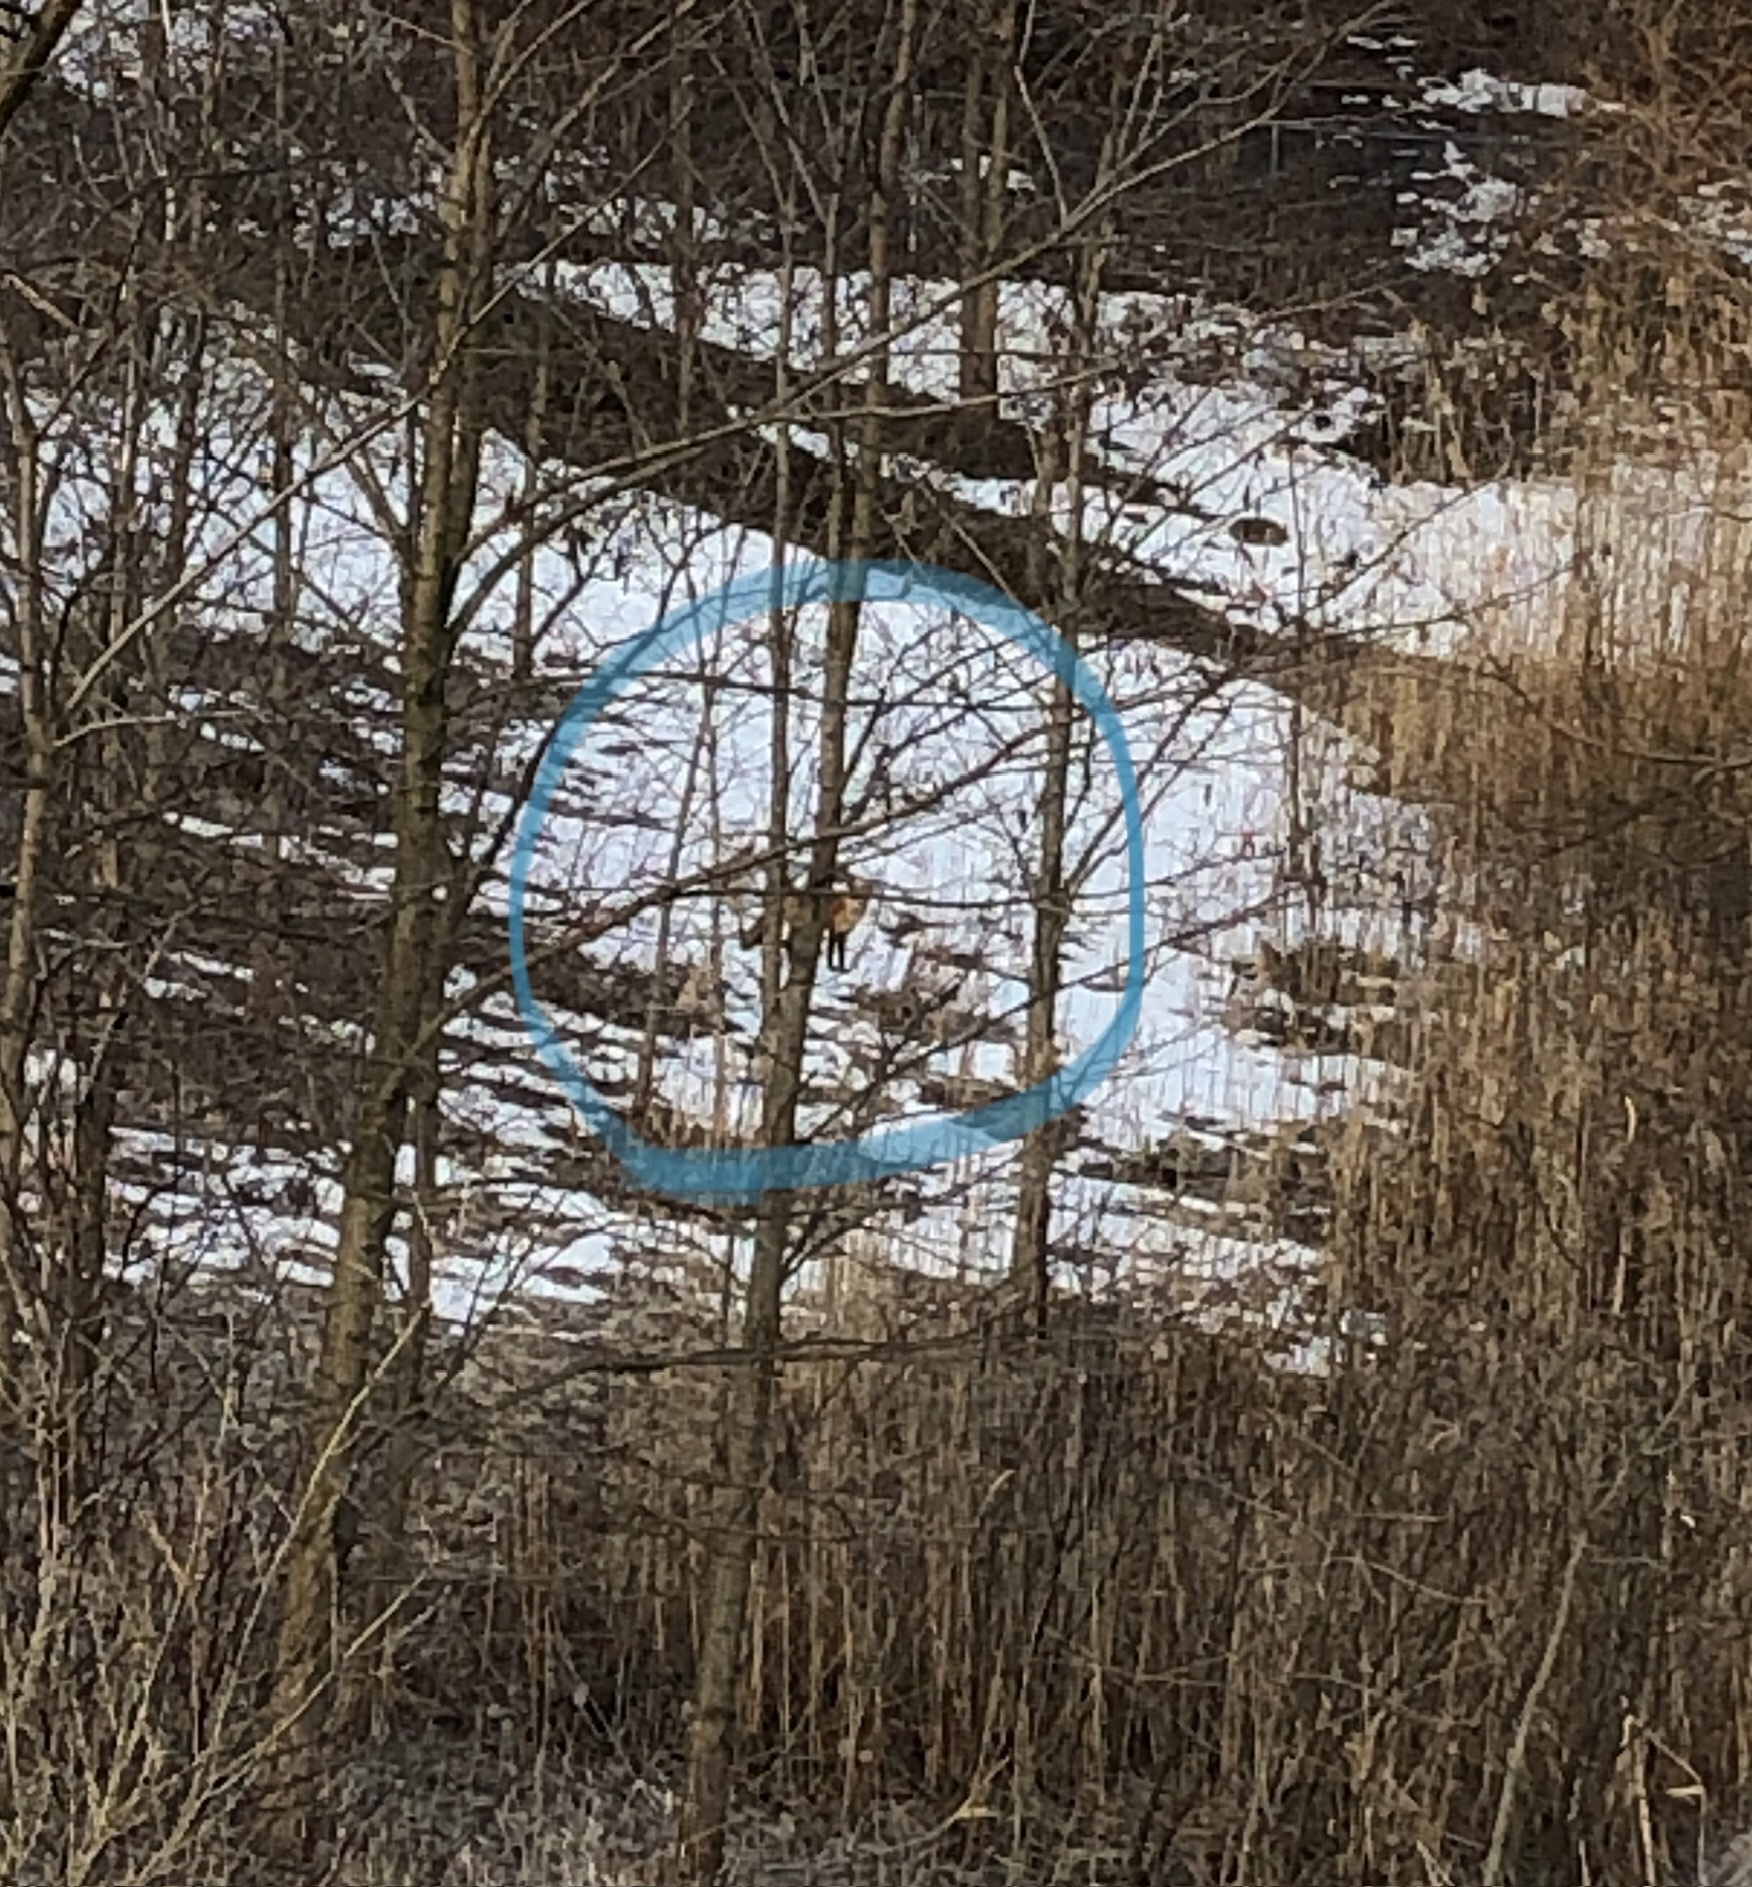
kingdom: Animalia
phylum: Chordata
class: Mammalia
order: Carnivora
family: Canidae
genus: Vulpes
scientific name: Vulpes vulpes
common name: Red fox
